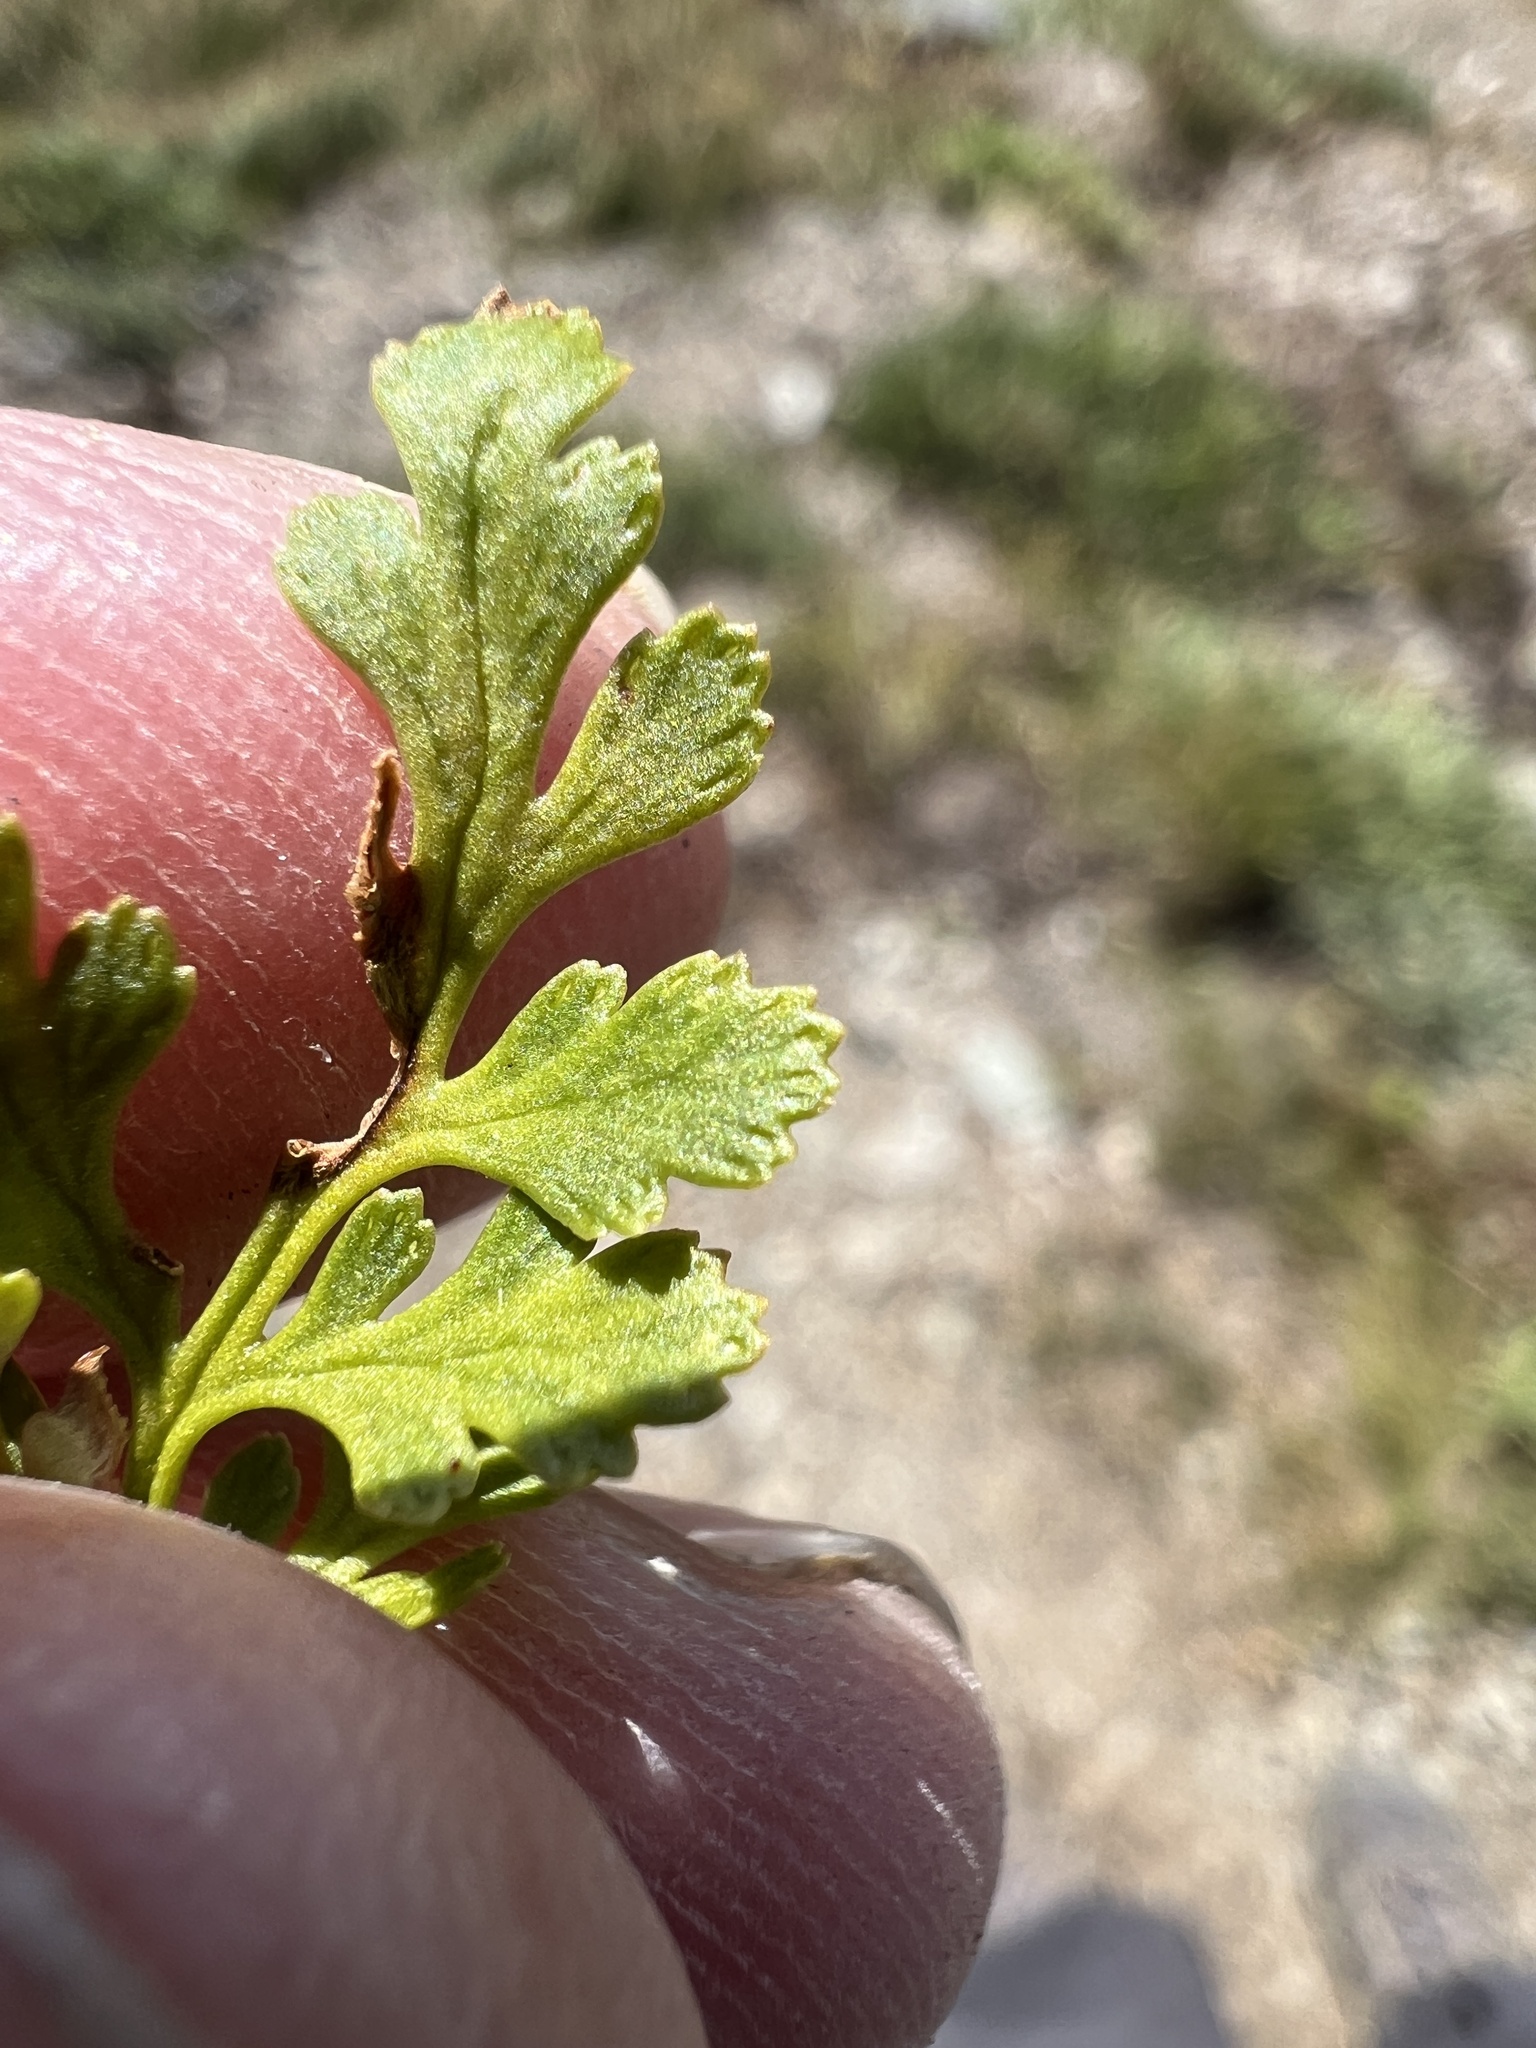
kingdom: Plantae
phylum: Tracheophyta
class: Polypodiopsida
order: Polypodiales
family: Pteridaceae
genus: Cryptogramma
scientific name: Cryptogramma acrostichoides
